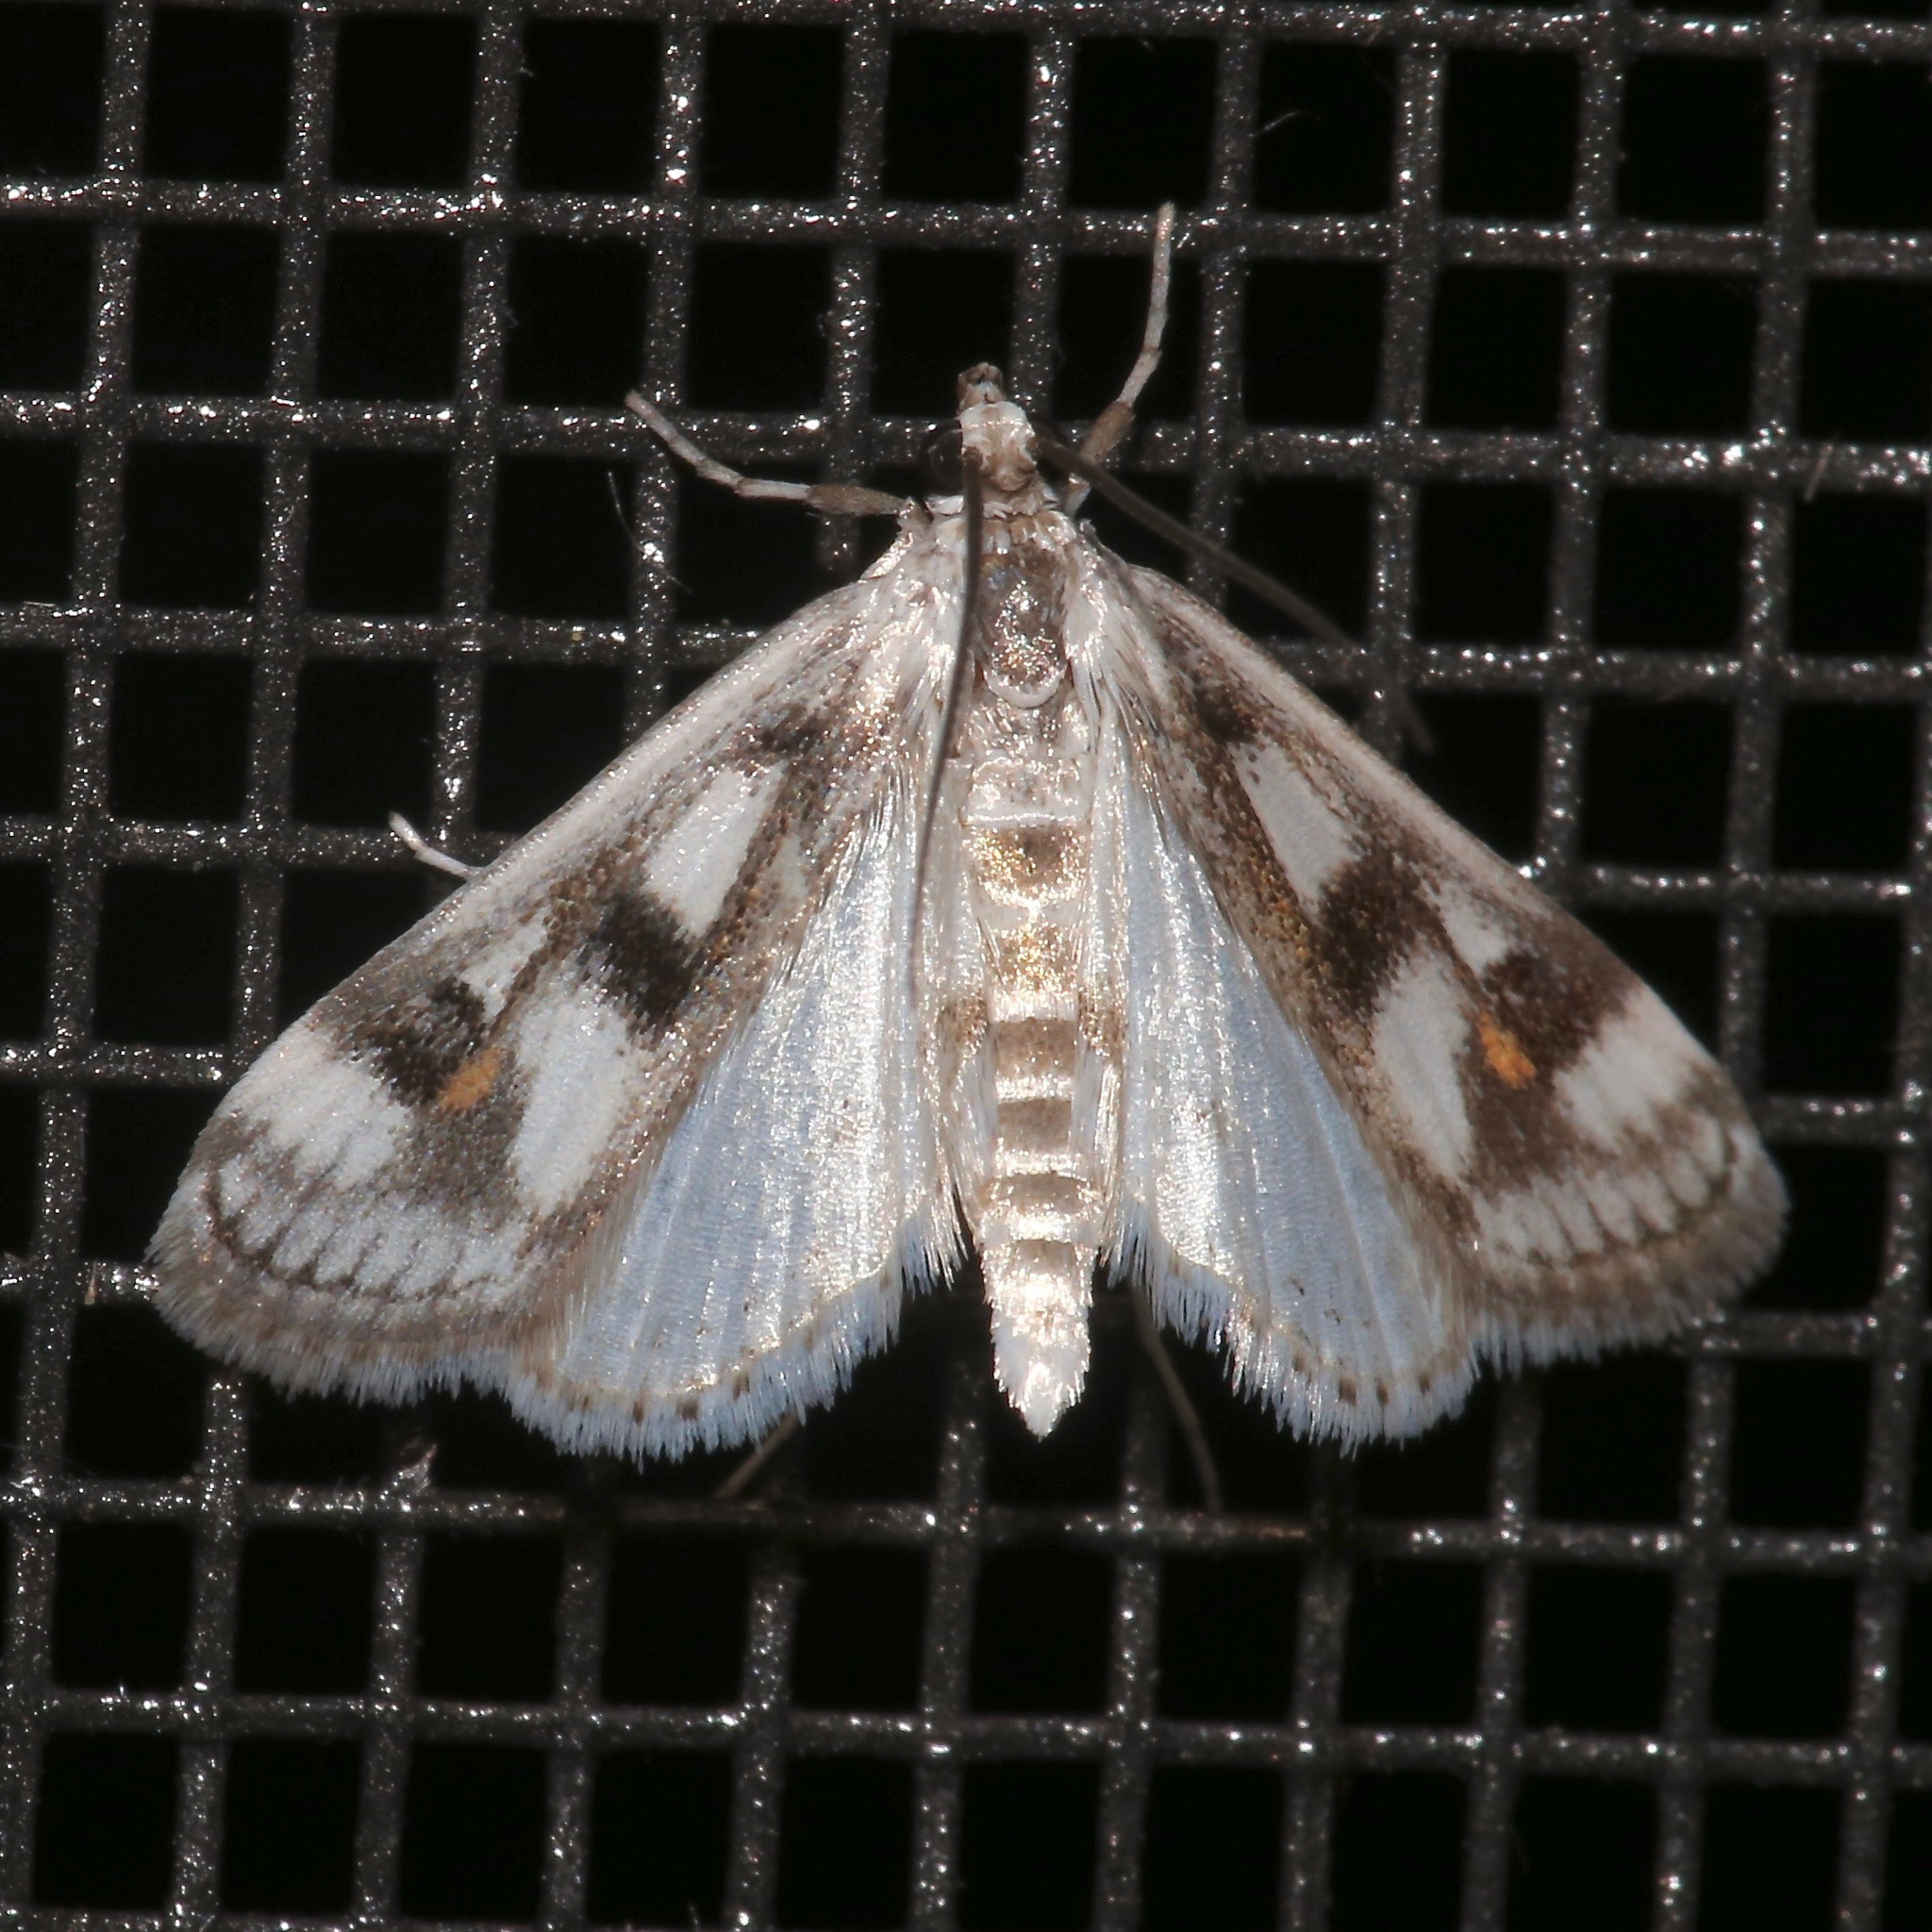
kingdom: Animalia
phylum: Arthropoda
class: Insecta
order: Lepidoptera
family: Crambidae
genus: Parapoynx
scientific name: Parapoynx maculalis
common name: Polymorphic pondweed moth
